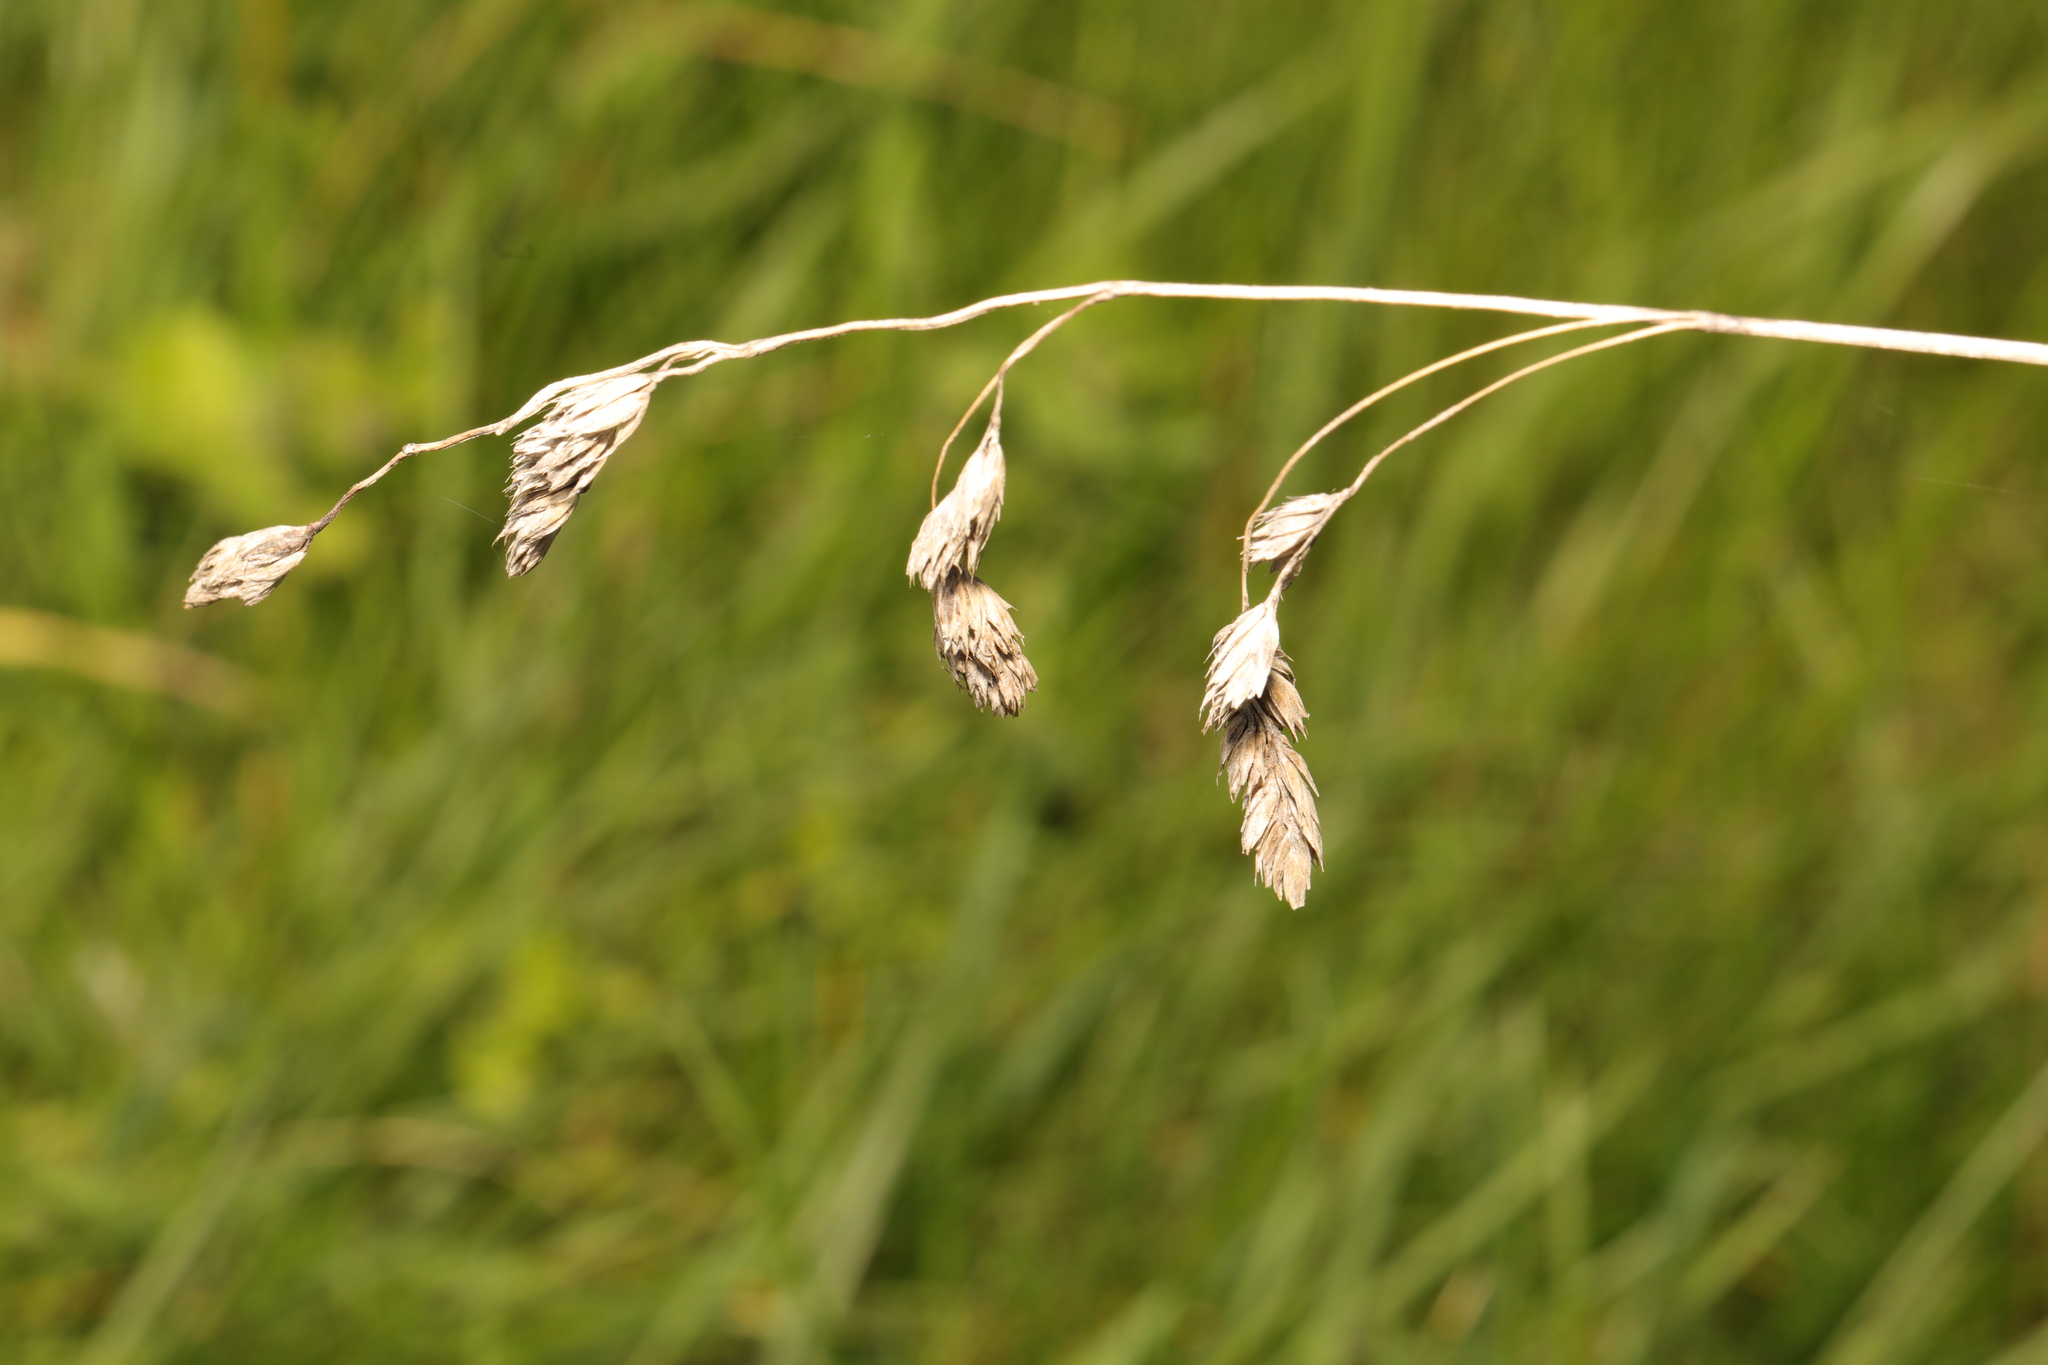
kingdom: Plantae
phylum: Tracheophyta
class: Liliopsida
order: Poales
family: Poaceae
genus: Dactylis
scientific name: Dactylis glomerata
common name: Orchardgrass
